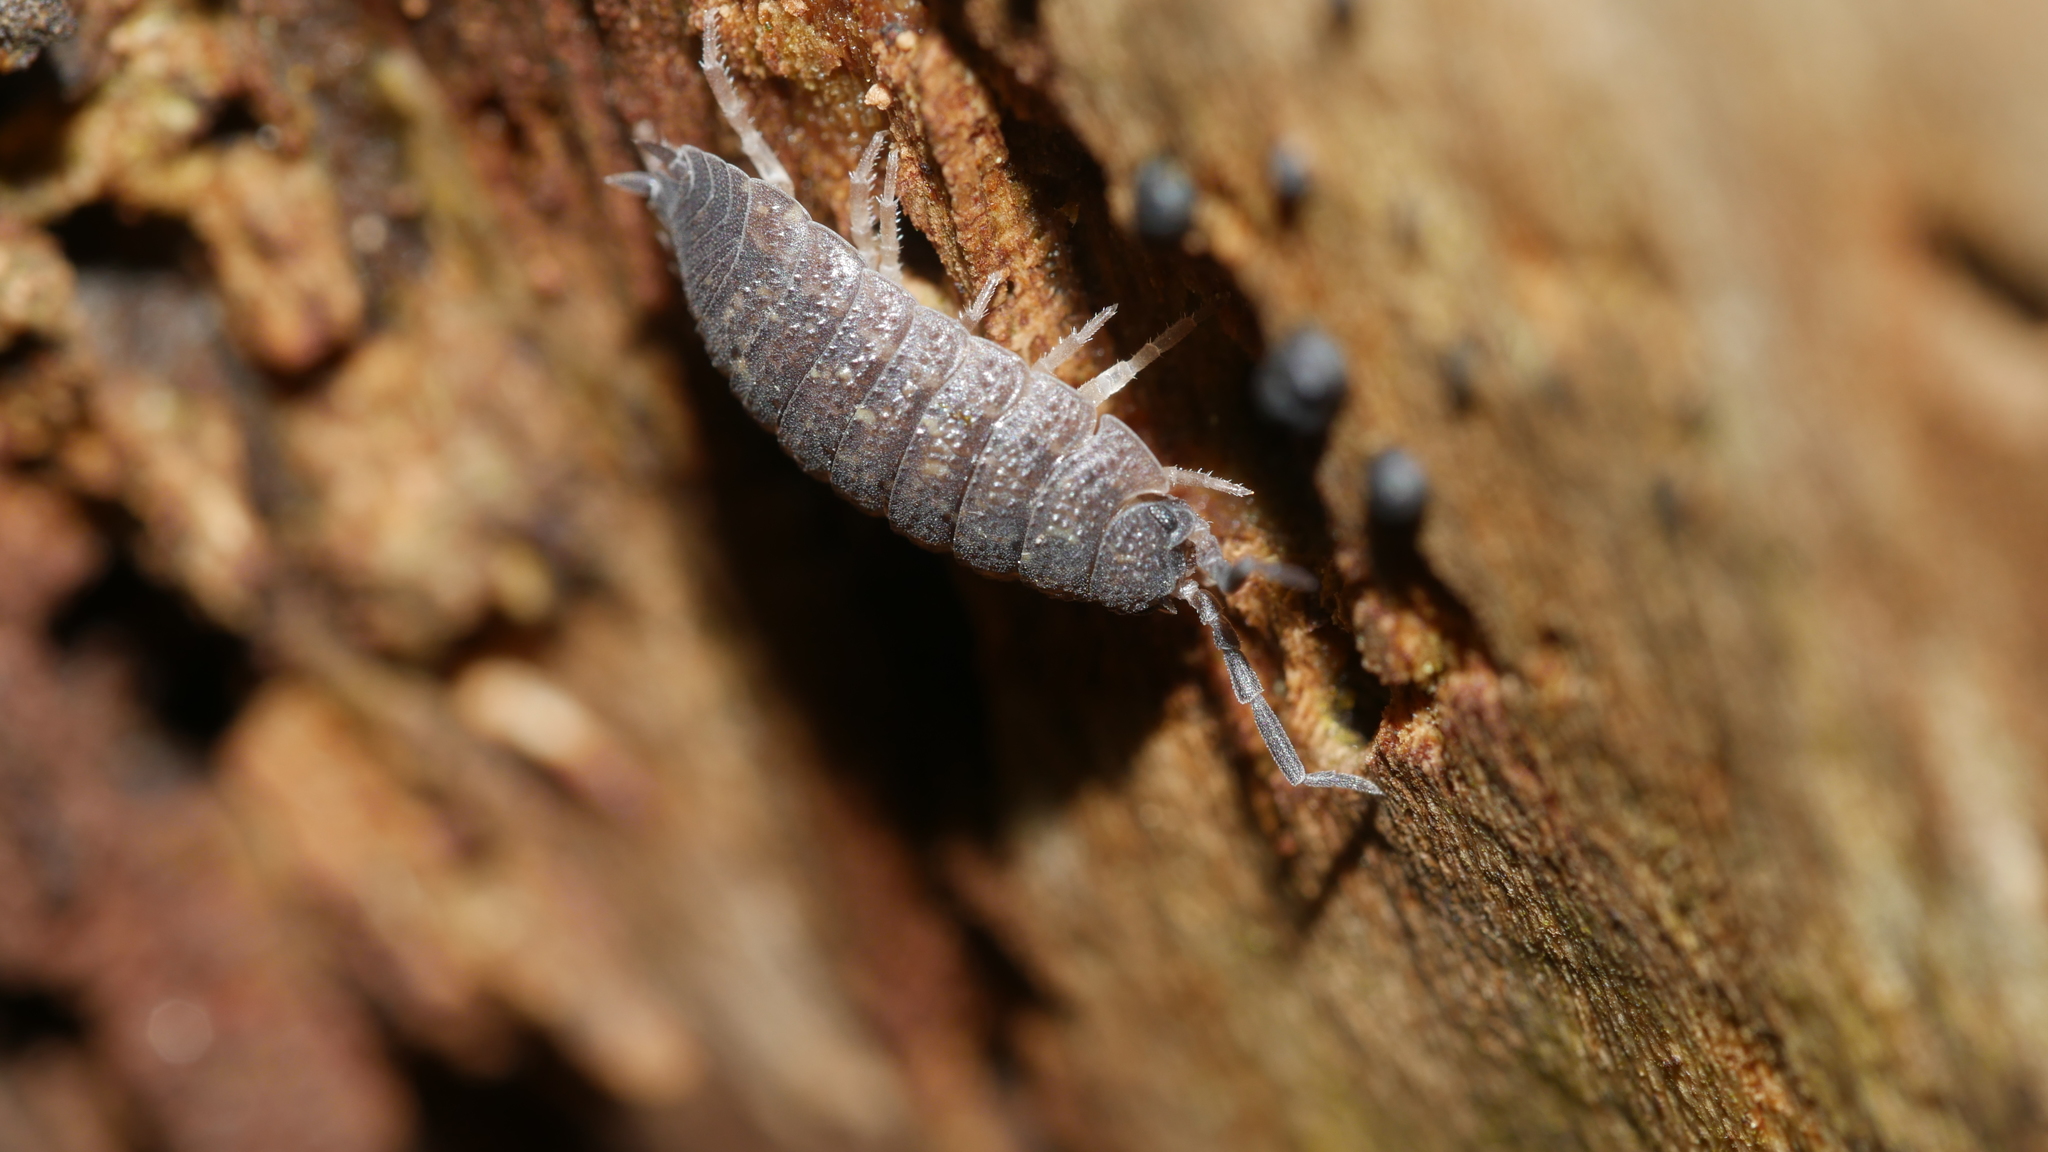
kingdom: Animalia
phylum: Arthropoda
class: Malacostraca
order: Isopoda
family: Porcellionidae
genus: Porcellio
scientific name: Porcellio scaber
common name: Common rough woodlouse
